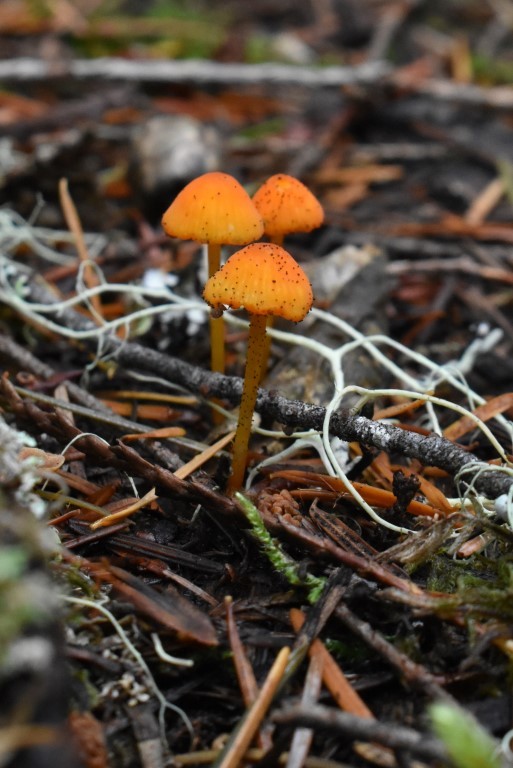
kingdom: Fungi
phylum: Basidiomycota
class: Agaricomycetes
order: Agaricales
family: Mycenaceae
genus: Mycena
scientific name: Mycena strobilinoidea
